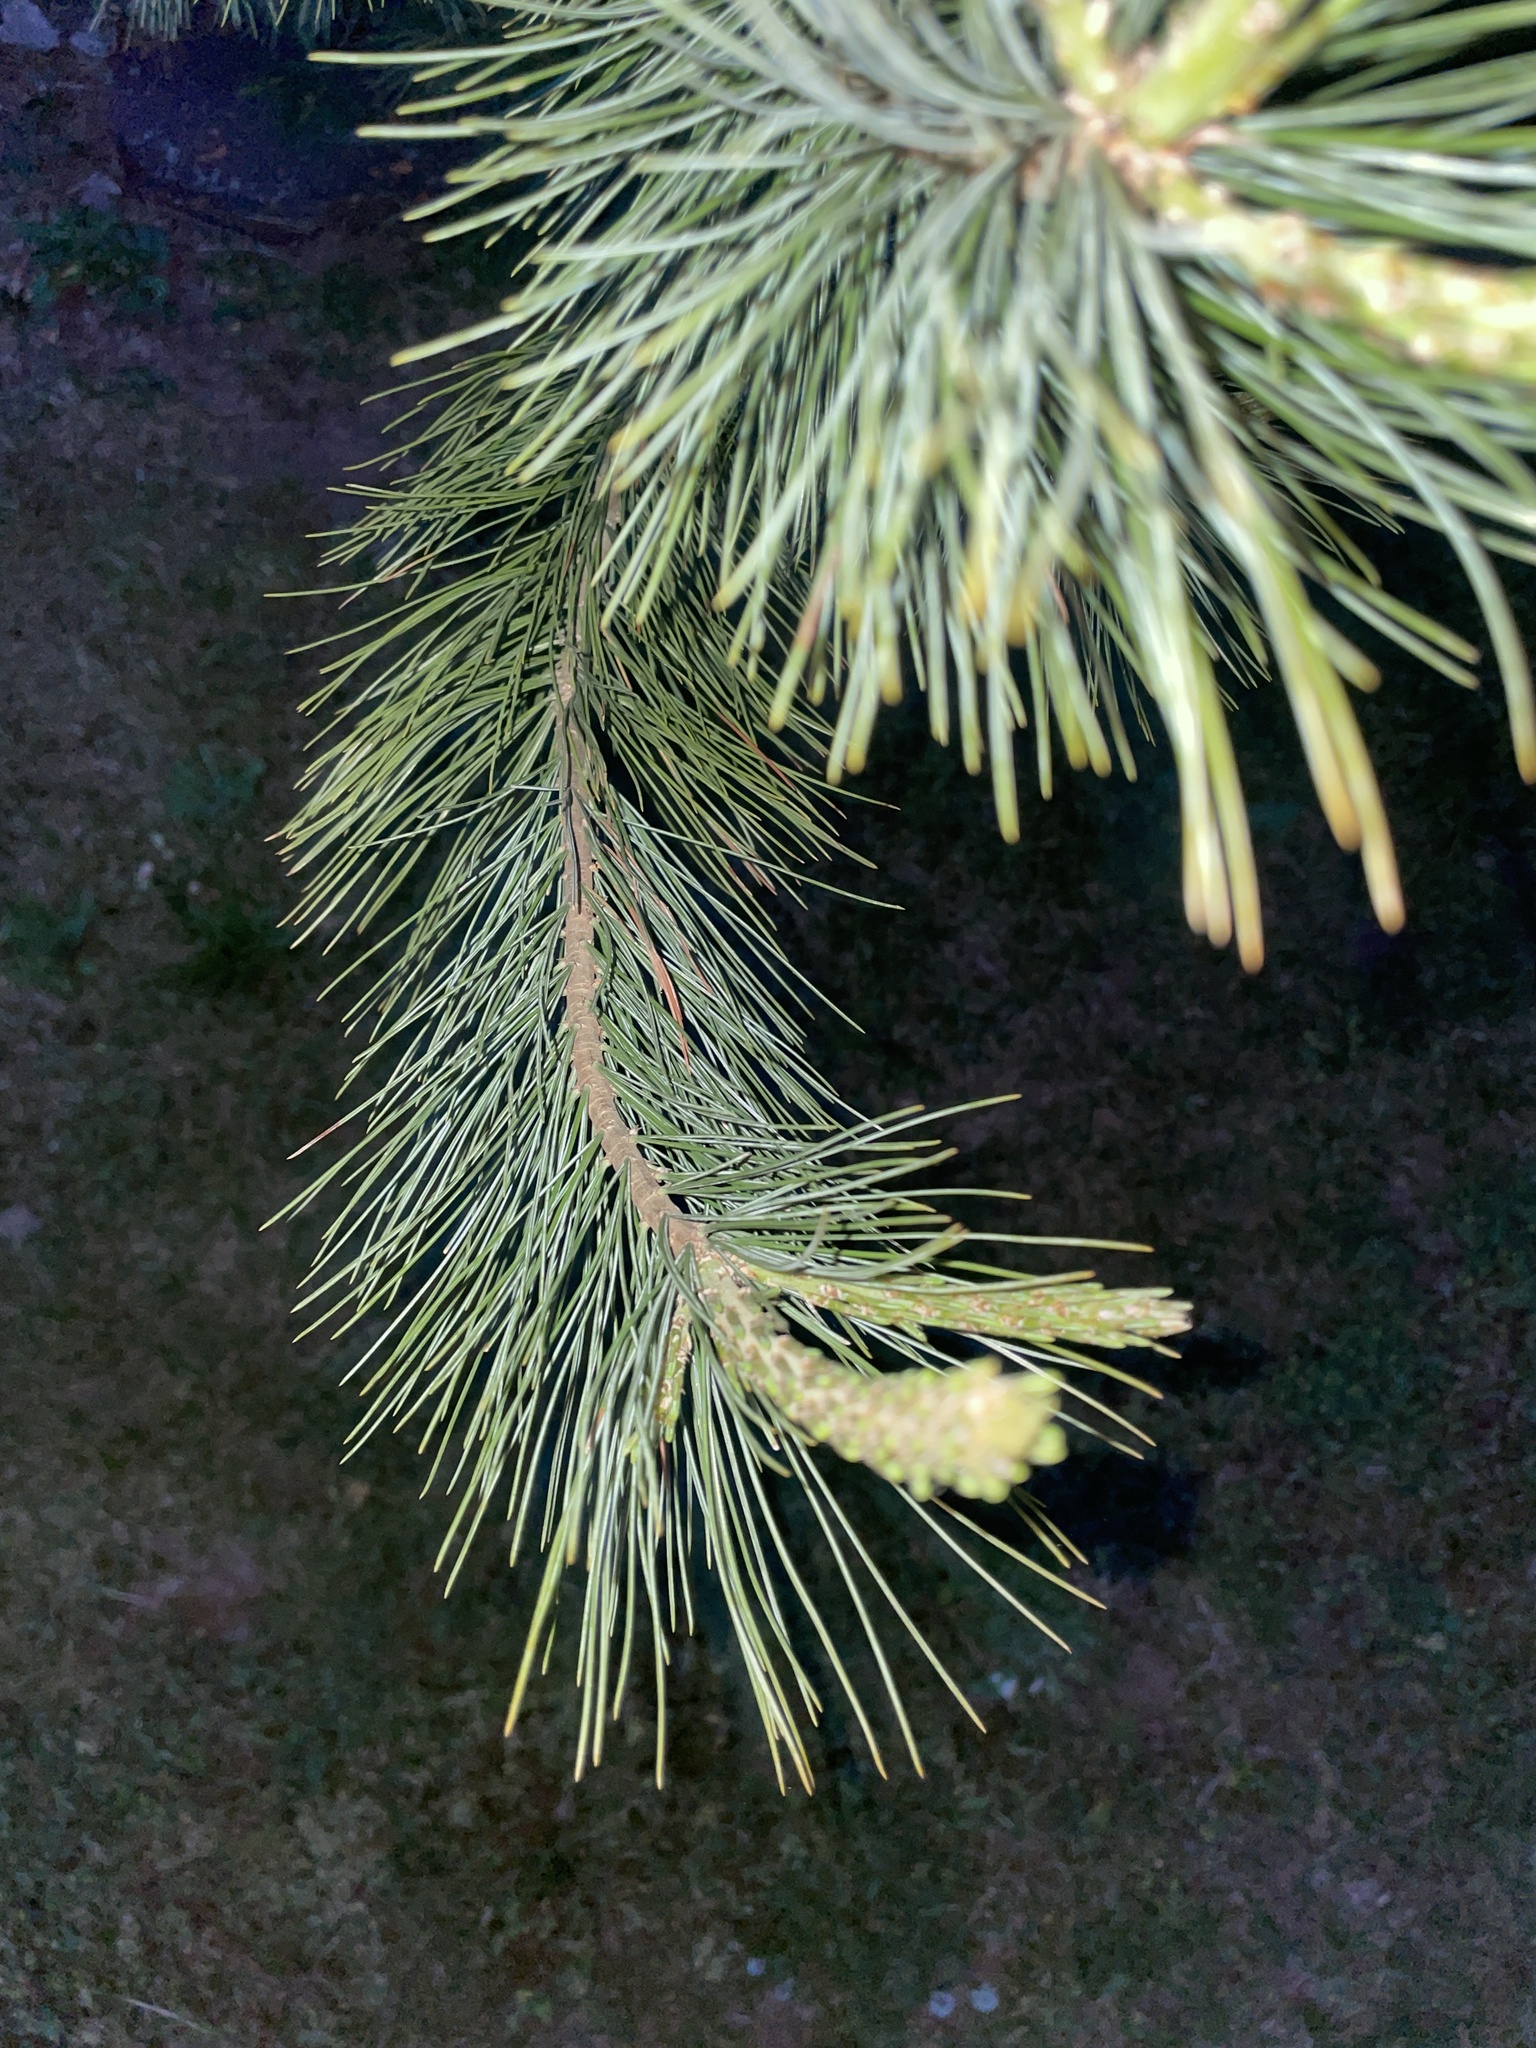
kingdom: Plantae
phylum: Tracheophyta
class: Pinopsida
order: Pinales
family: Pinaceae
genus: Pinus
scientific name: Pinus strobus
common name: Weymouth pine
